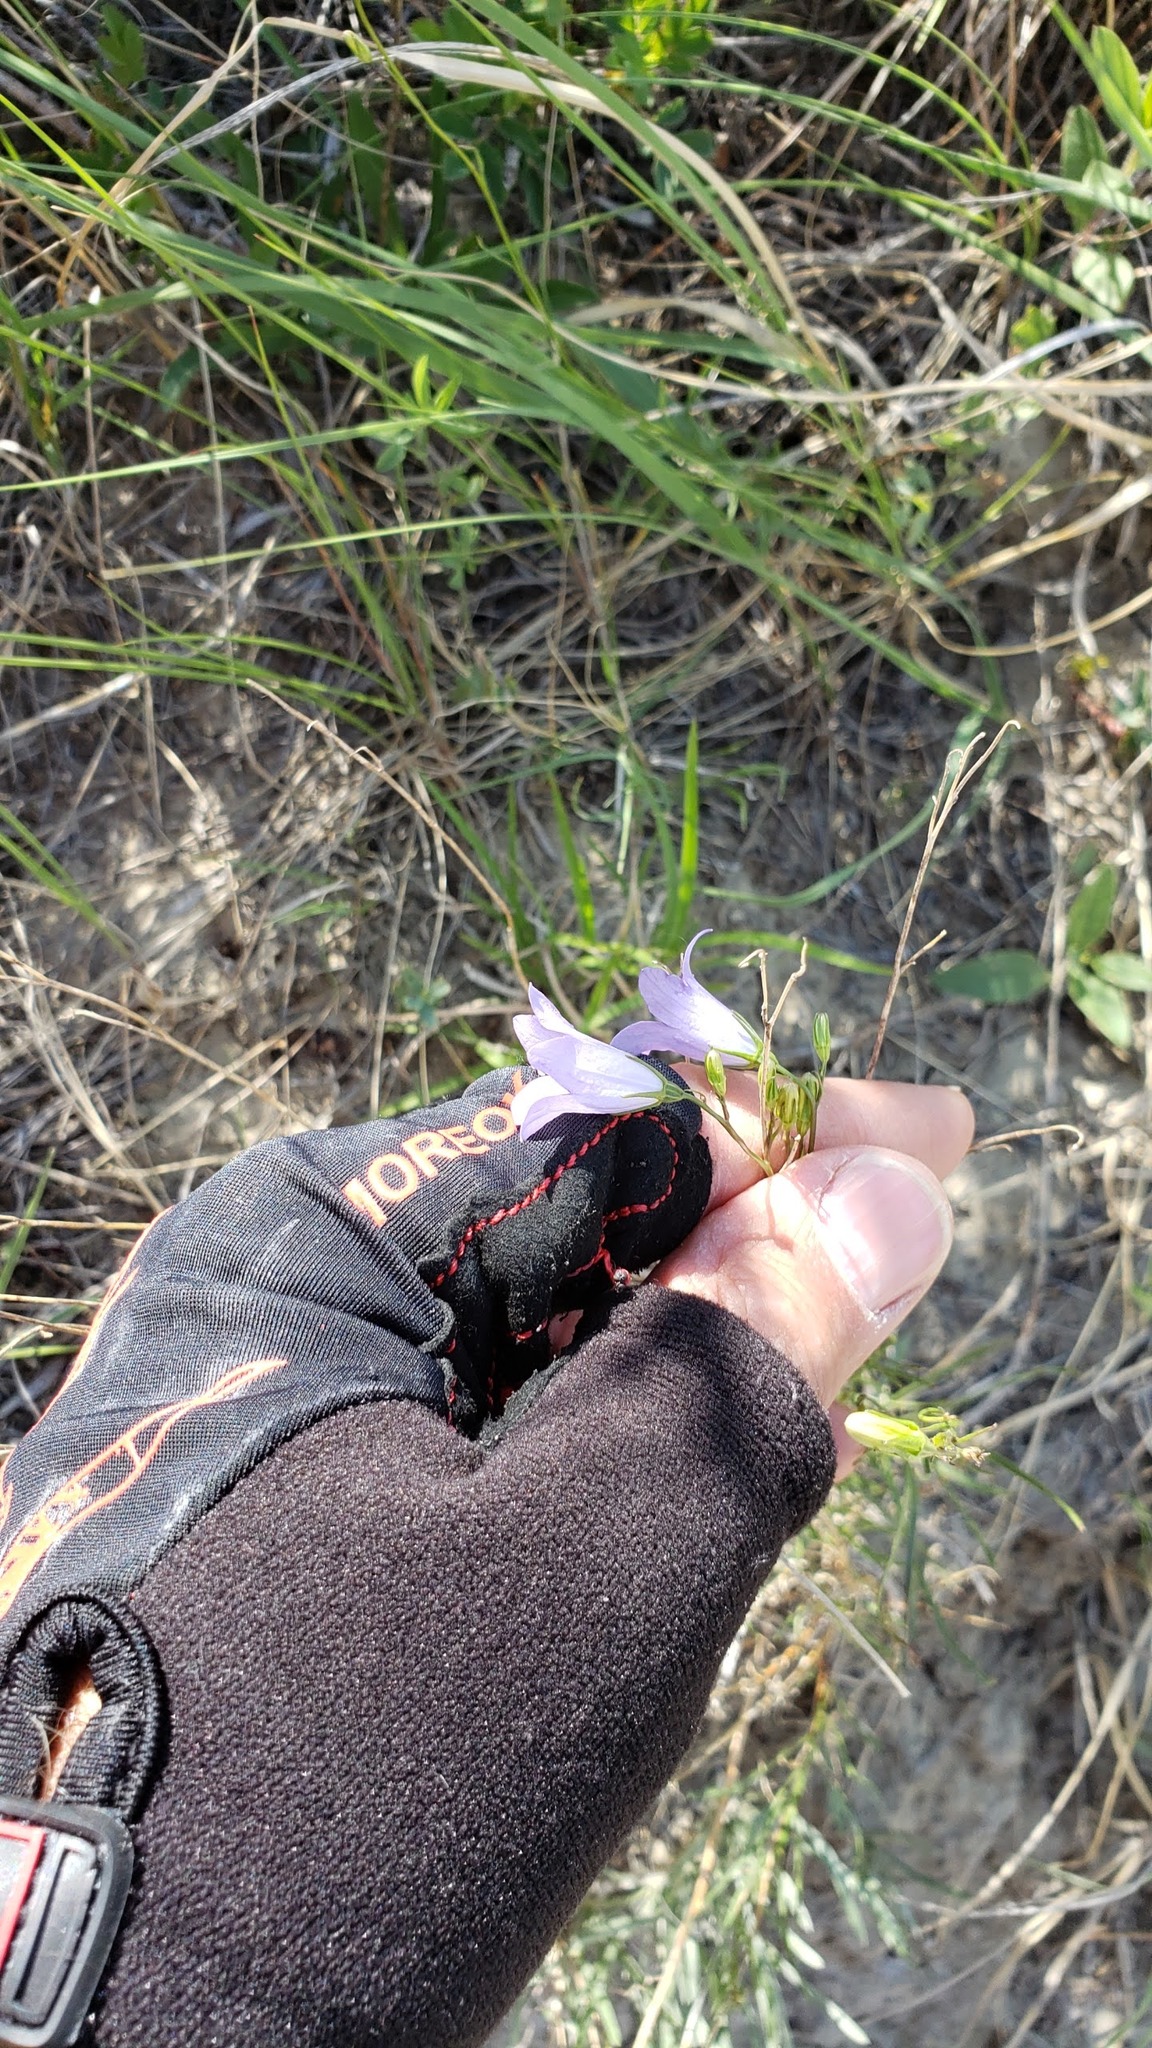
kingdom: Plantae
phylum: Tracheophyta
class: Magnoliopsida
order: Asterales
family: Campanulaceae
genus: Campanula
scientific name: Campanula petiolata
